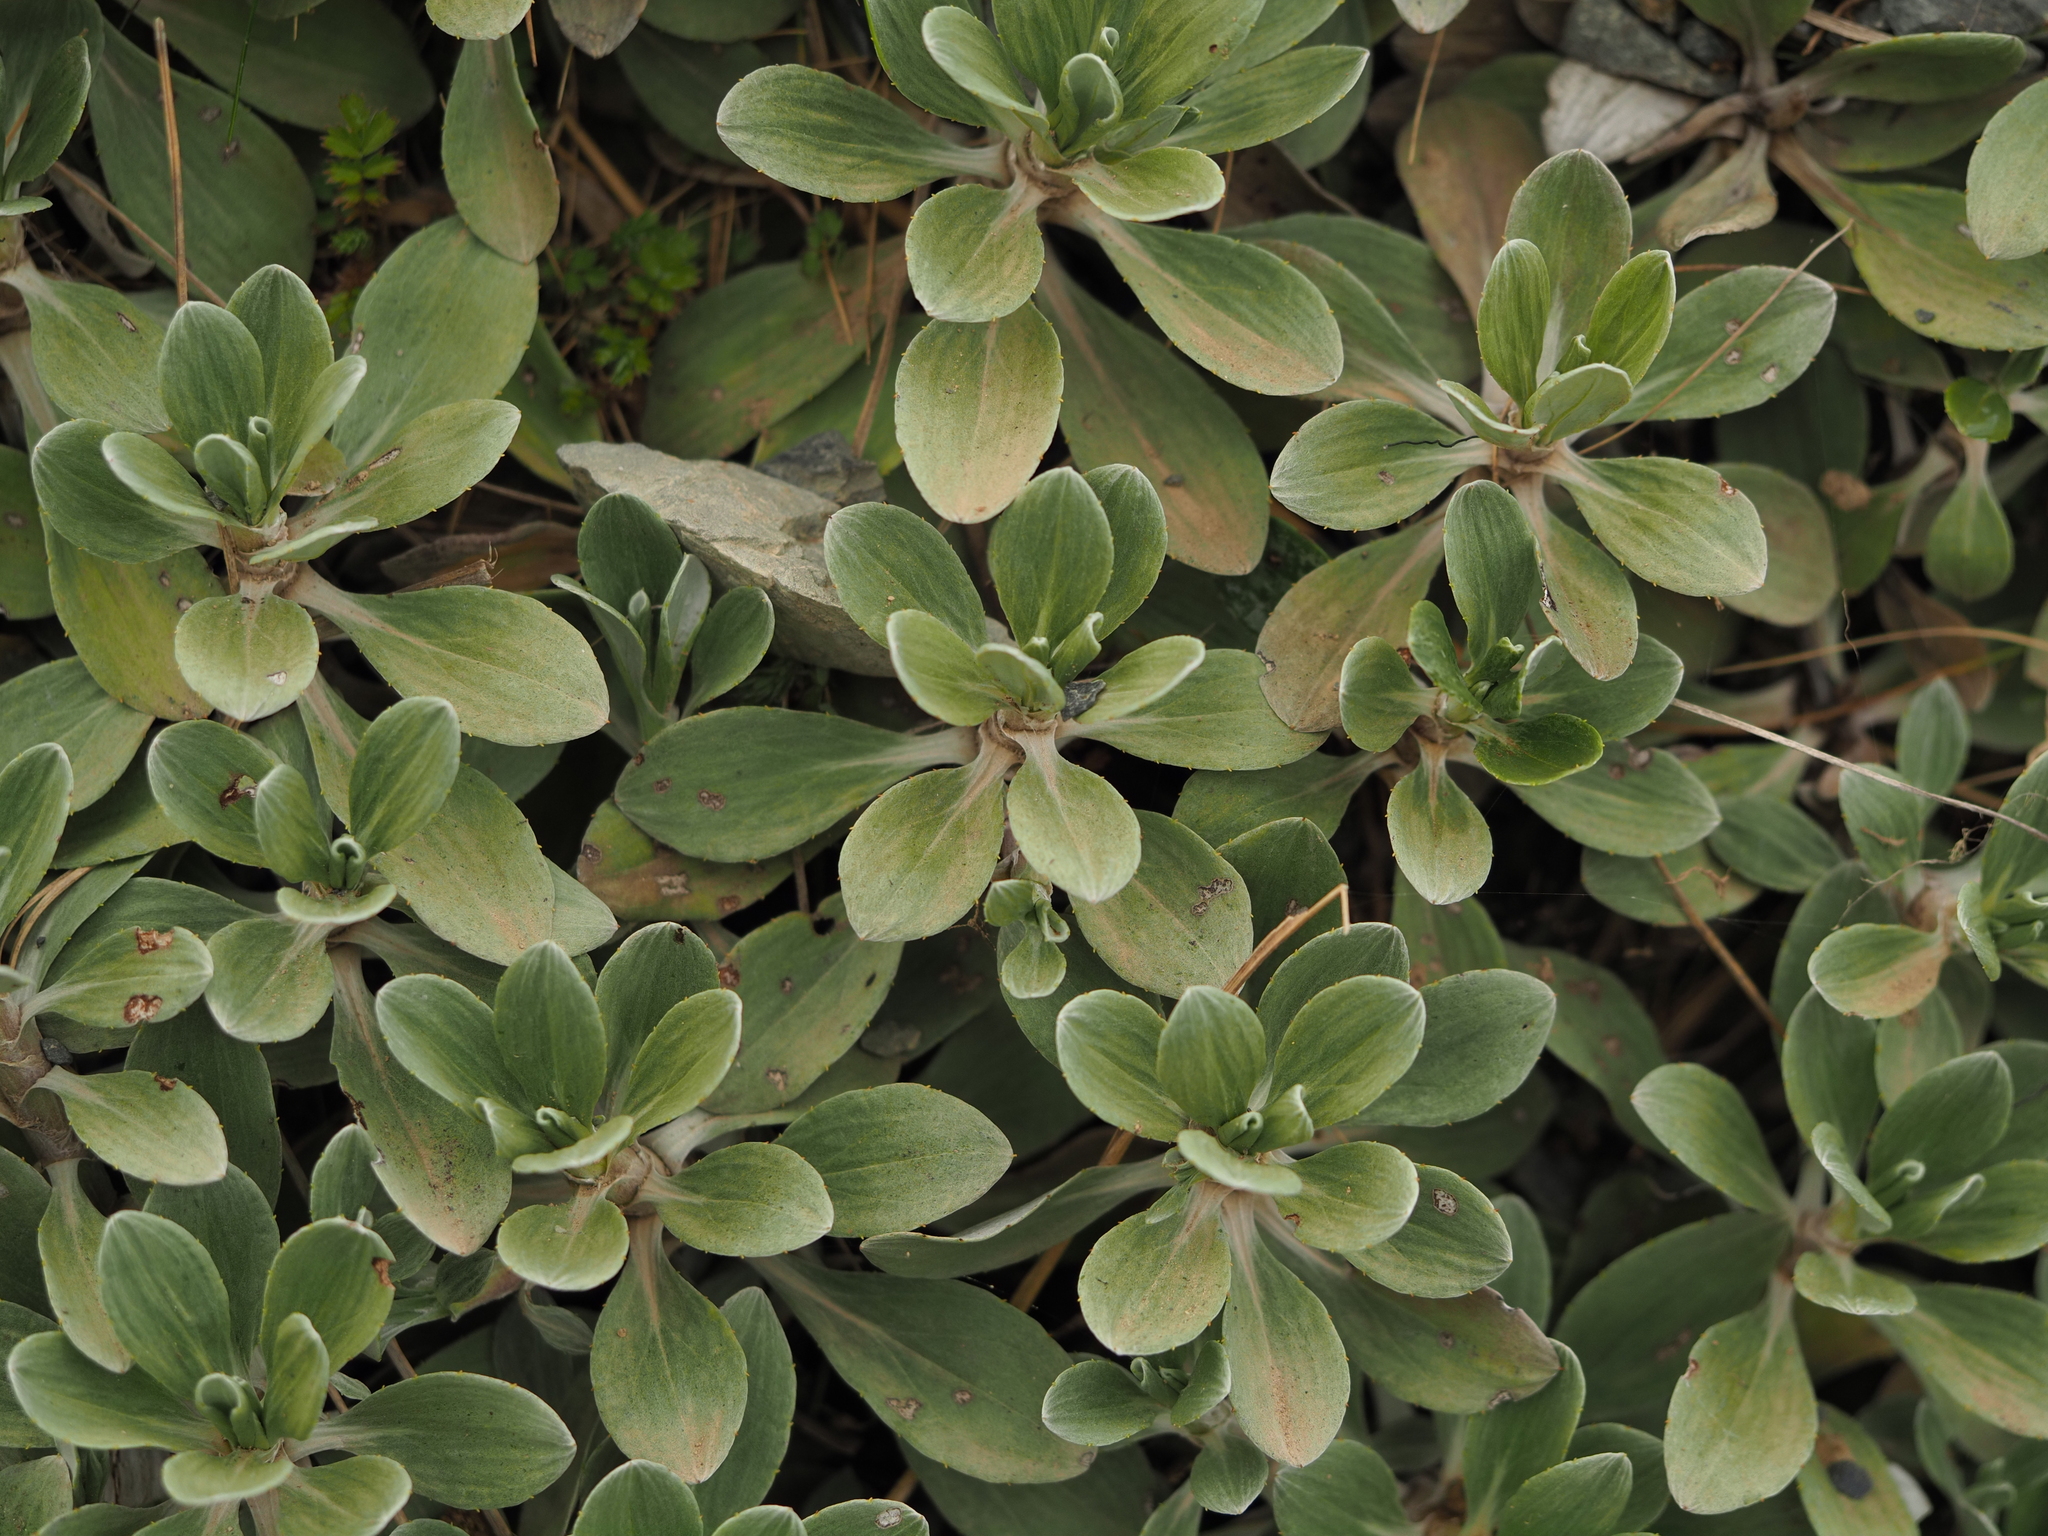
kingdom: Plantae
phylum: Tracheophyta
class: Magnoliopsida
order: Asterales
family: Asteraceae
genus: Celmisia
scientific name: Celmisia discolor
